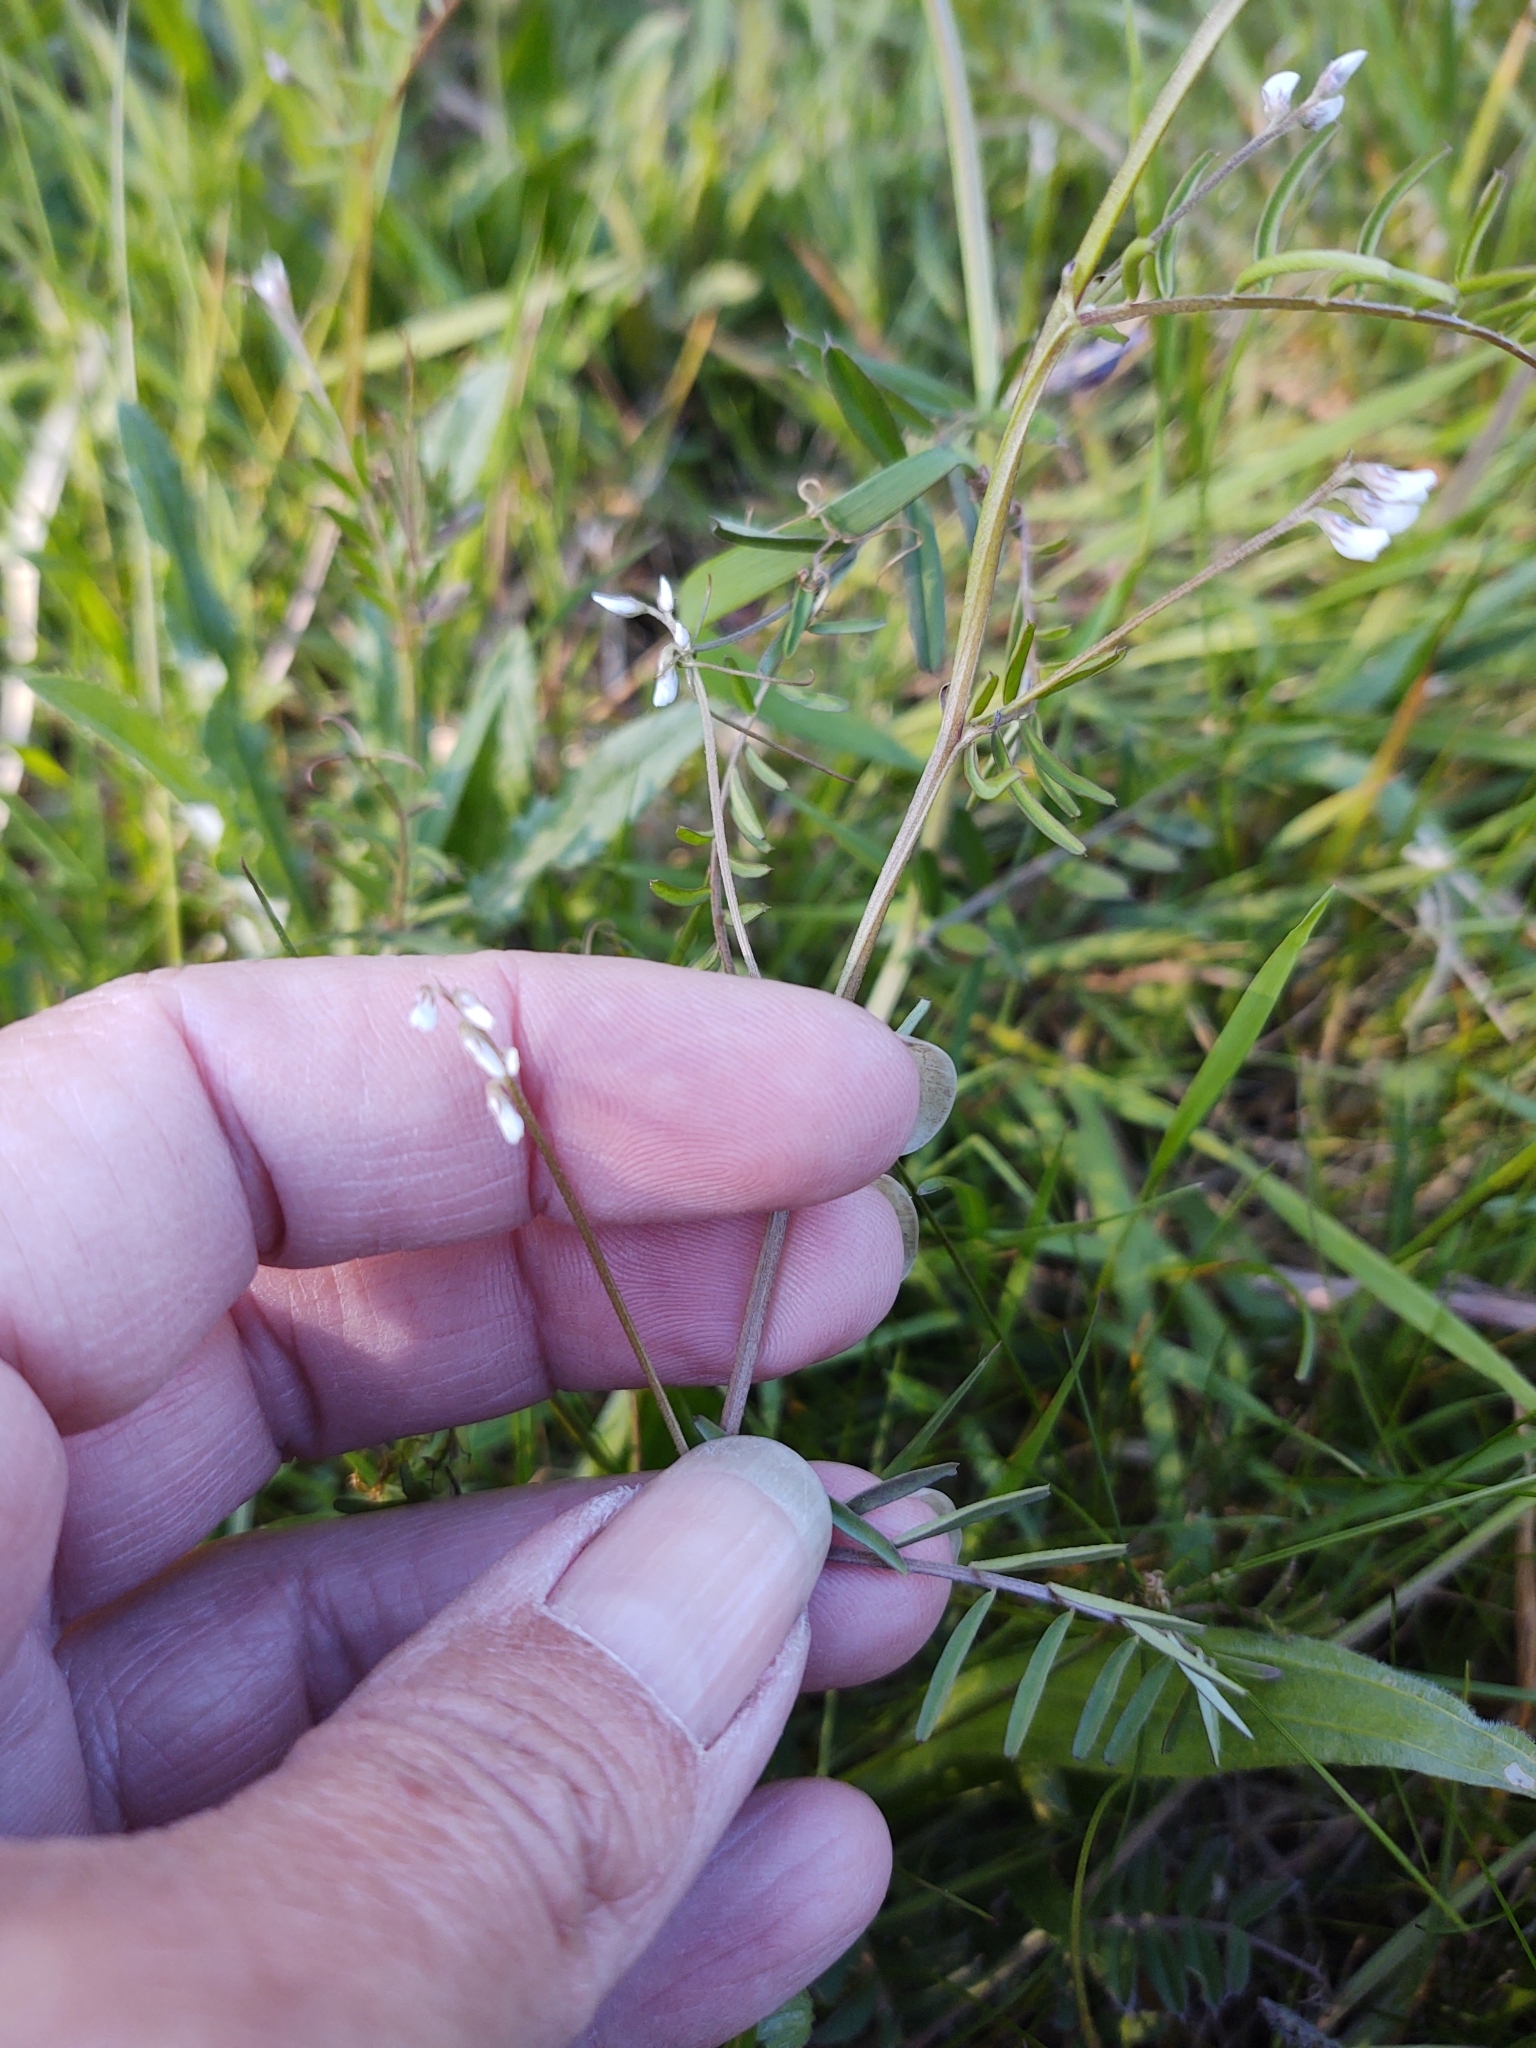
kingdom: Plantae
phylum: Tracheophyta
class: Magnoliopsida
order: Fabales
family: Fabaceae
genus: Vicia
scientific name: Vicia hirsuta
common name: Tiny vetch
